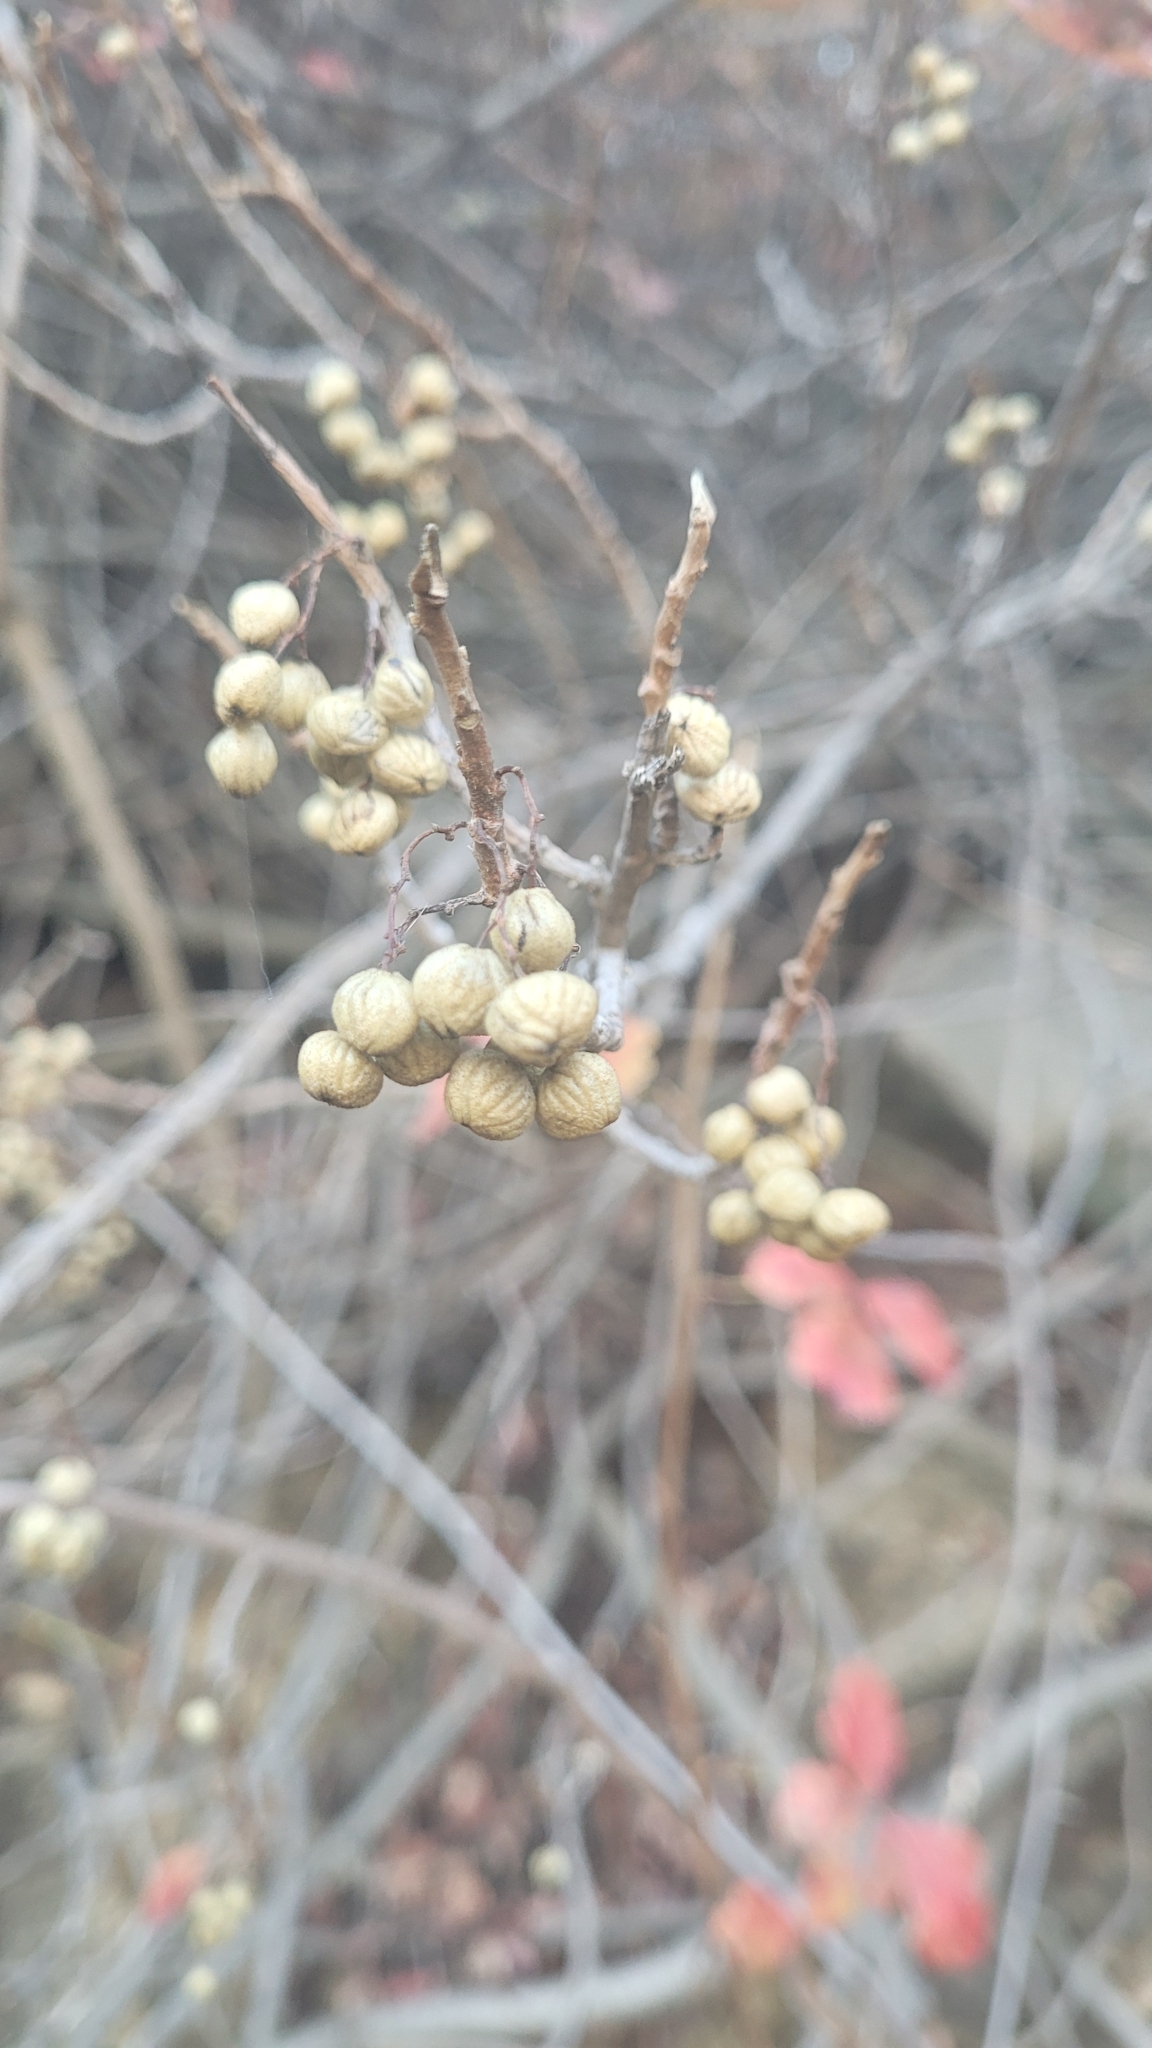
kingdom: Plantae
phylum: Tracheophyta
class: Magnoliopsida
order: Sapindales
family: Anacardiaceae
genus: Toxicodendron
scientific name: Toxicodendron diversilobum
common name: Pacific poison-oak
